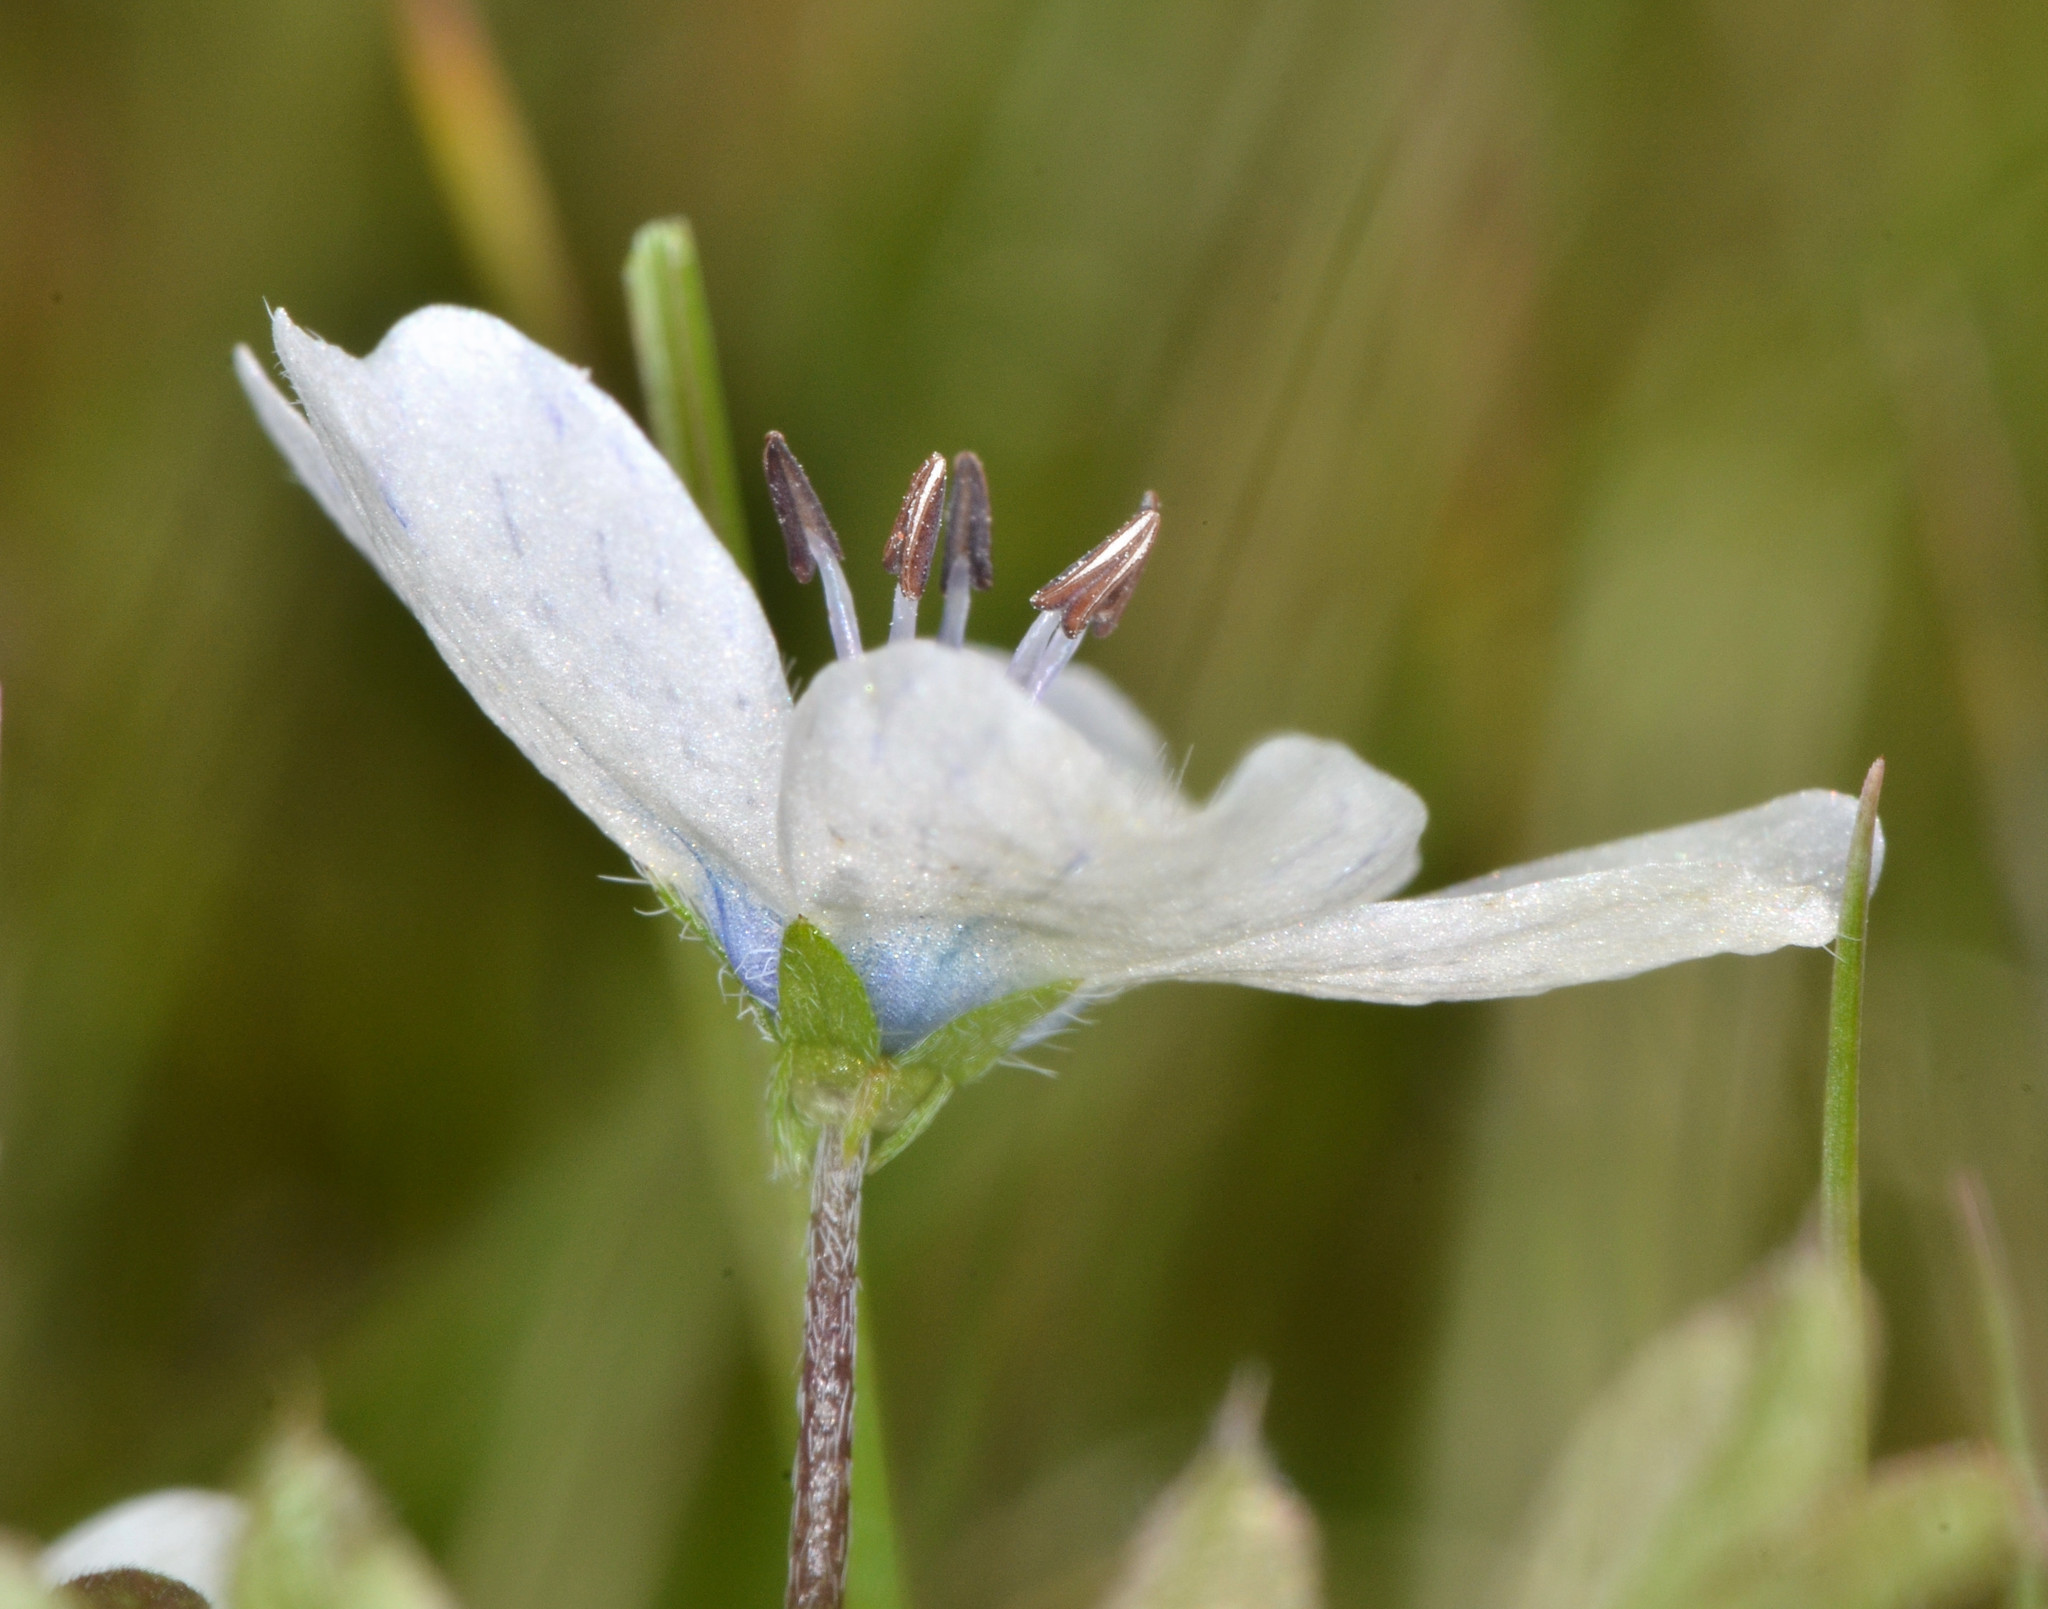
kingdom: Plantae
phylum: Tracheophyta
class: Magnoliopsida
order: Boraginales
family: Hydrophyllaceae
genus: Nemophila
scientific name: Nemophila menziesii
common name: Baby's-blue-eyes
